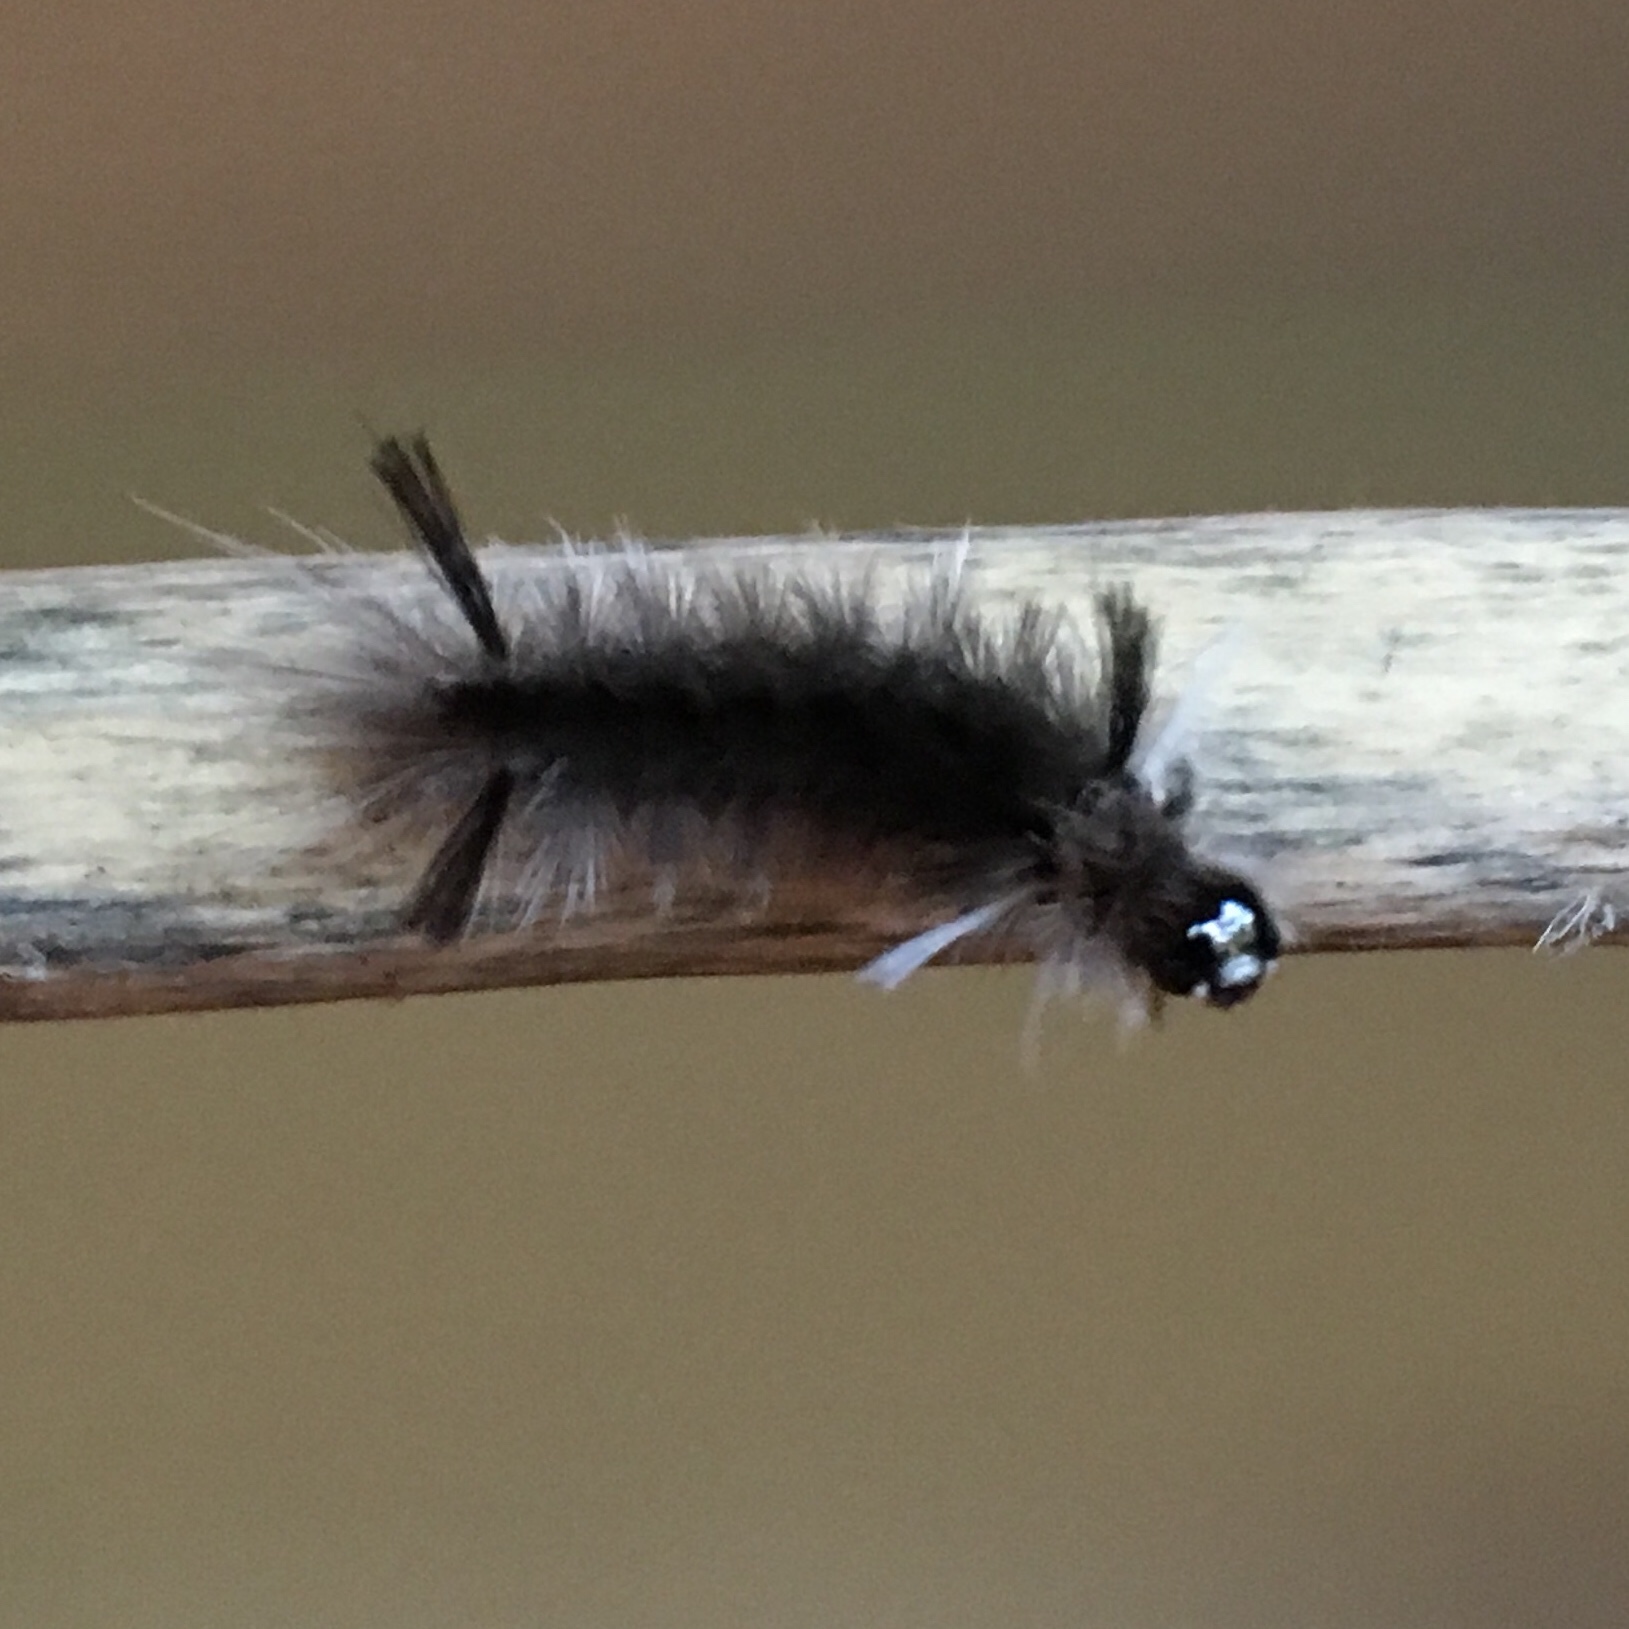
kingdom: Animalia
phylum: Arthropoda
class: Insecta
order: Lepidoptera
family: Erebidae
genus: Halysidota
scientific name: Halysidota tessellaris
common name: Banded tussock moth
